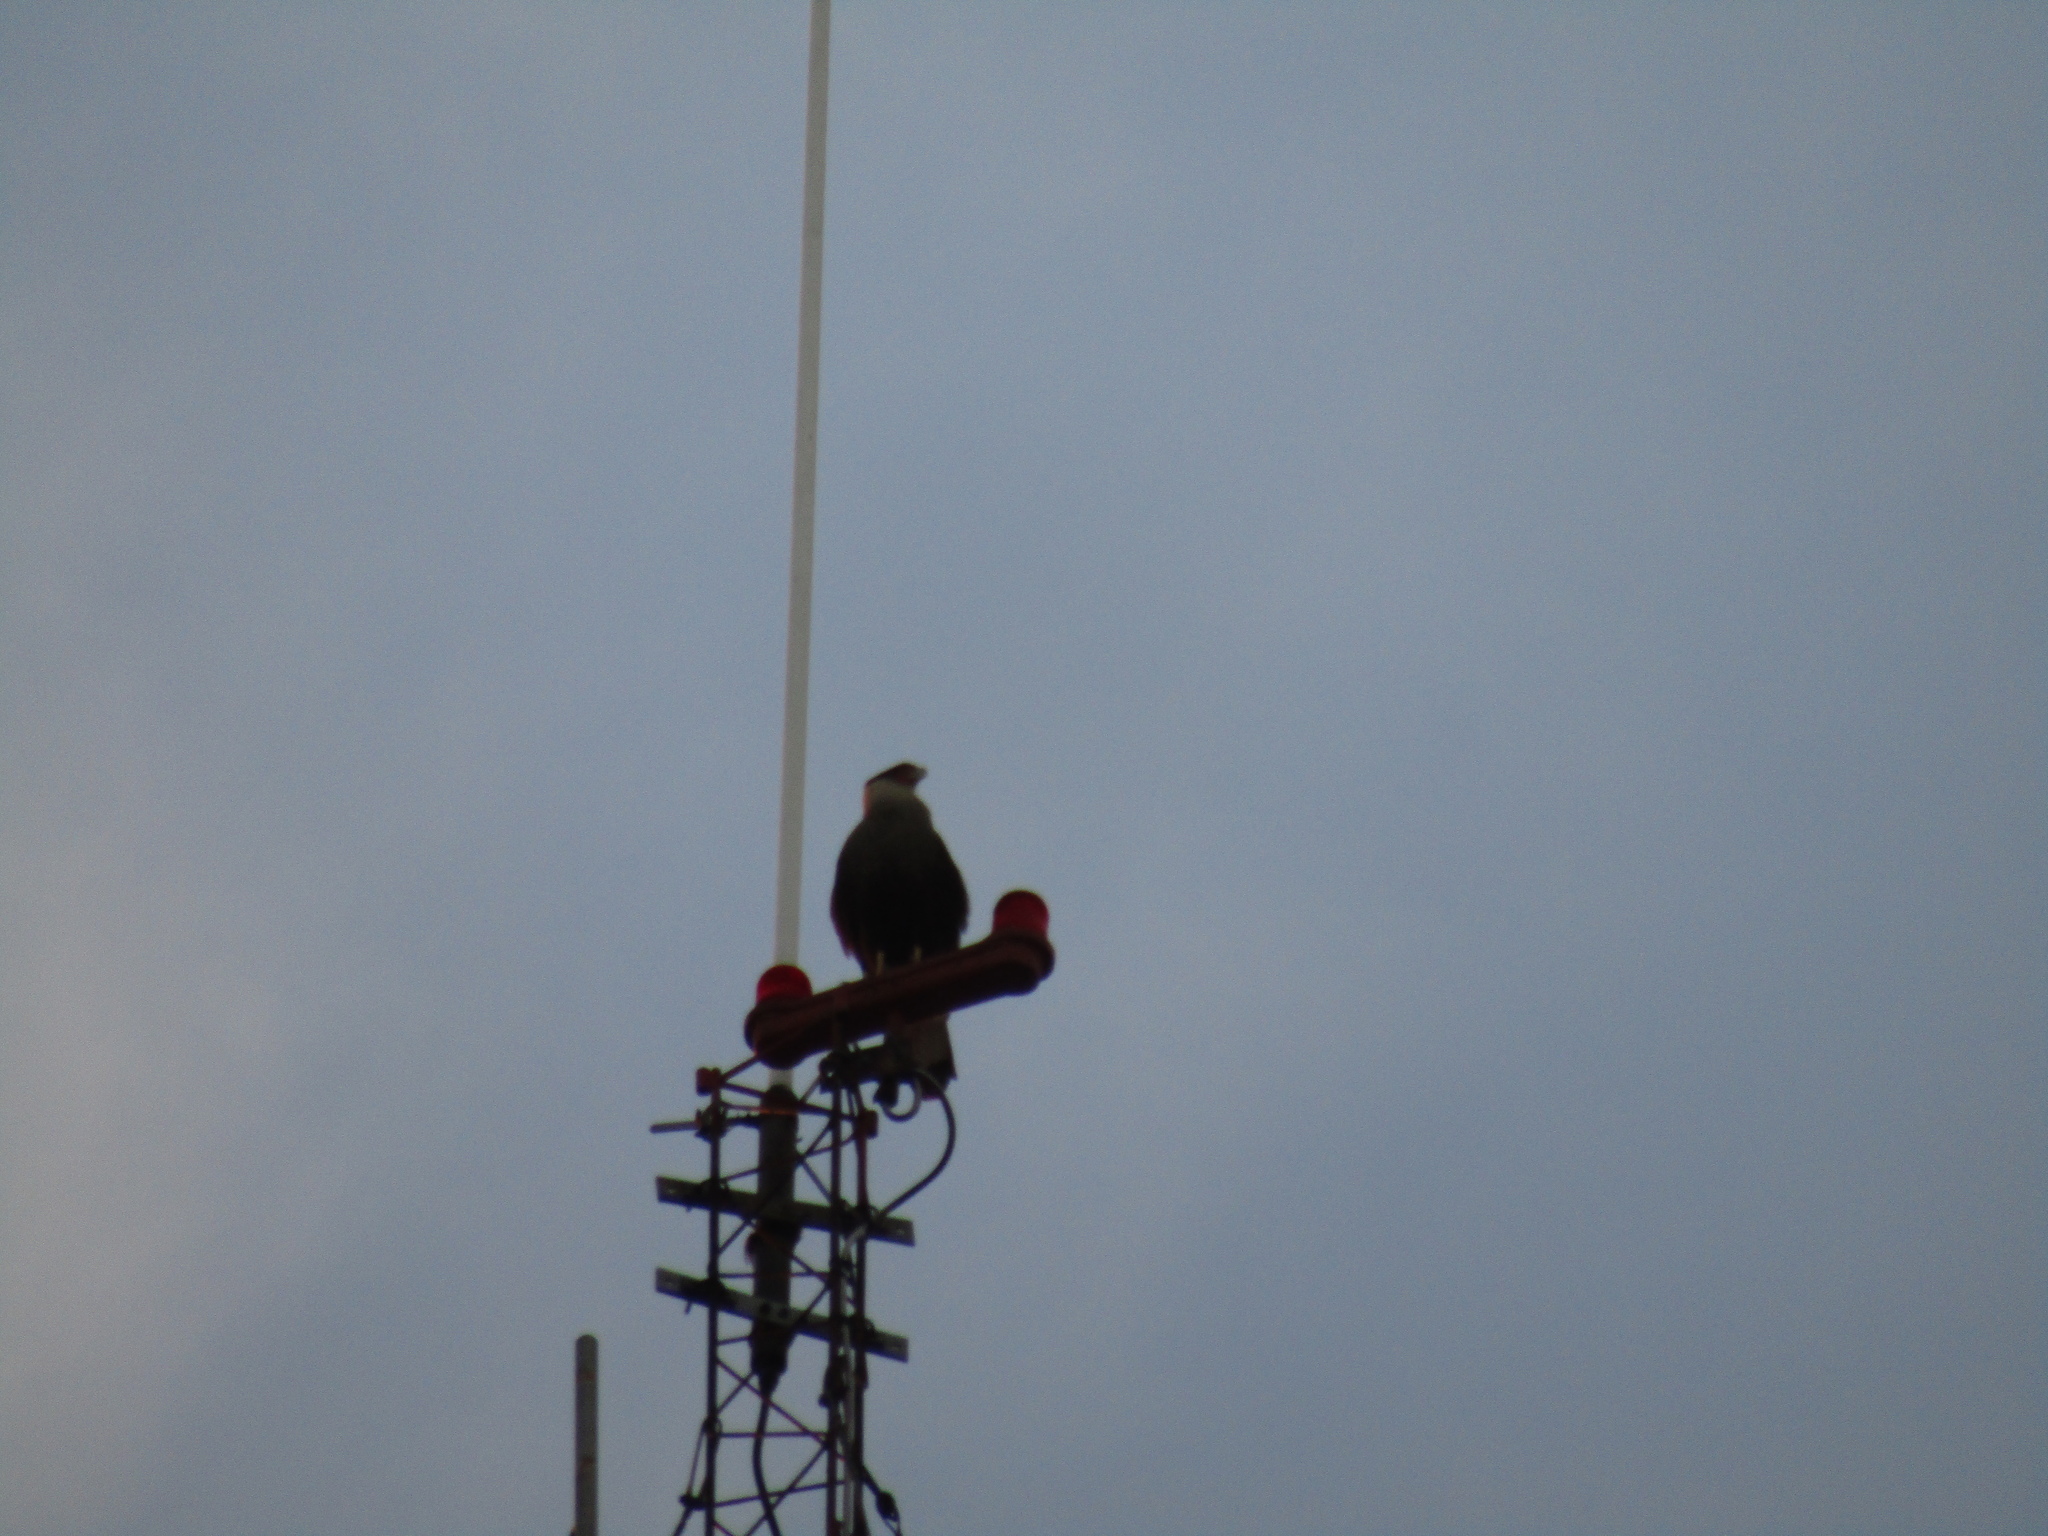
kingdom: Animalia
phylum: Chordata
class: Aves
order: Falconiformes
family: Falconidae
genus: Caracara
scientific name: Caracara plancus
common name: Southern caracara
